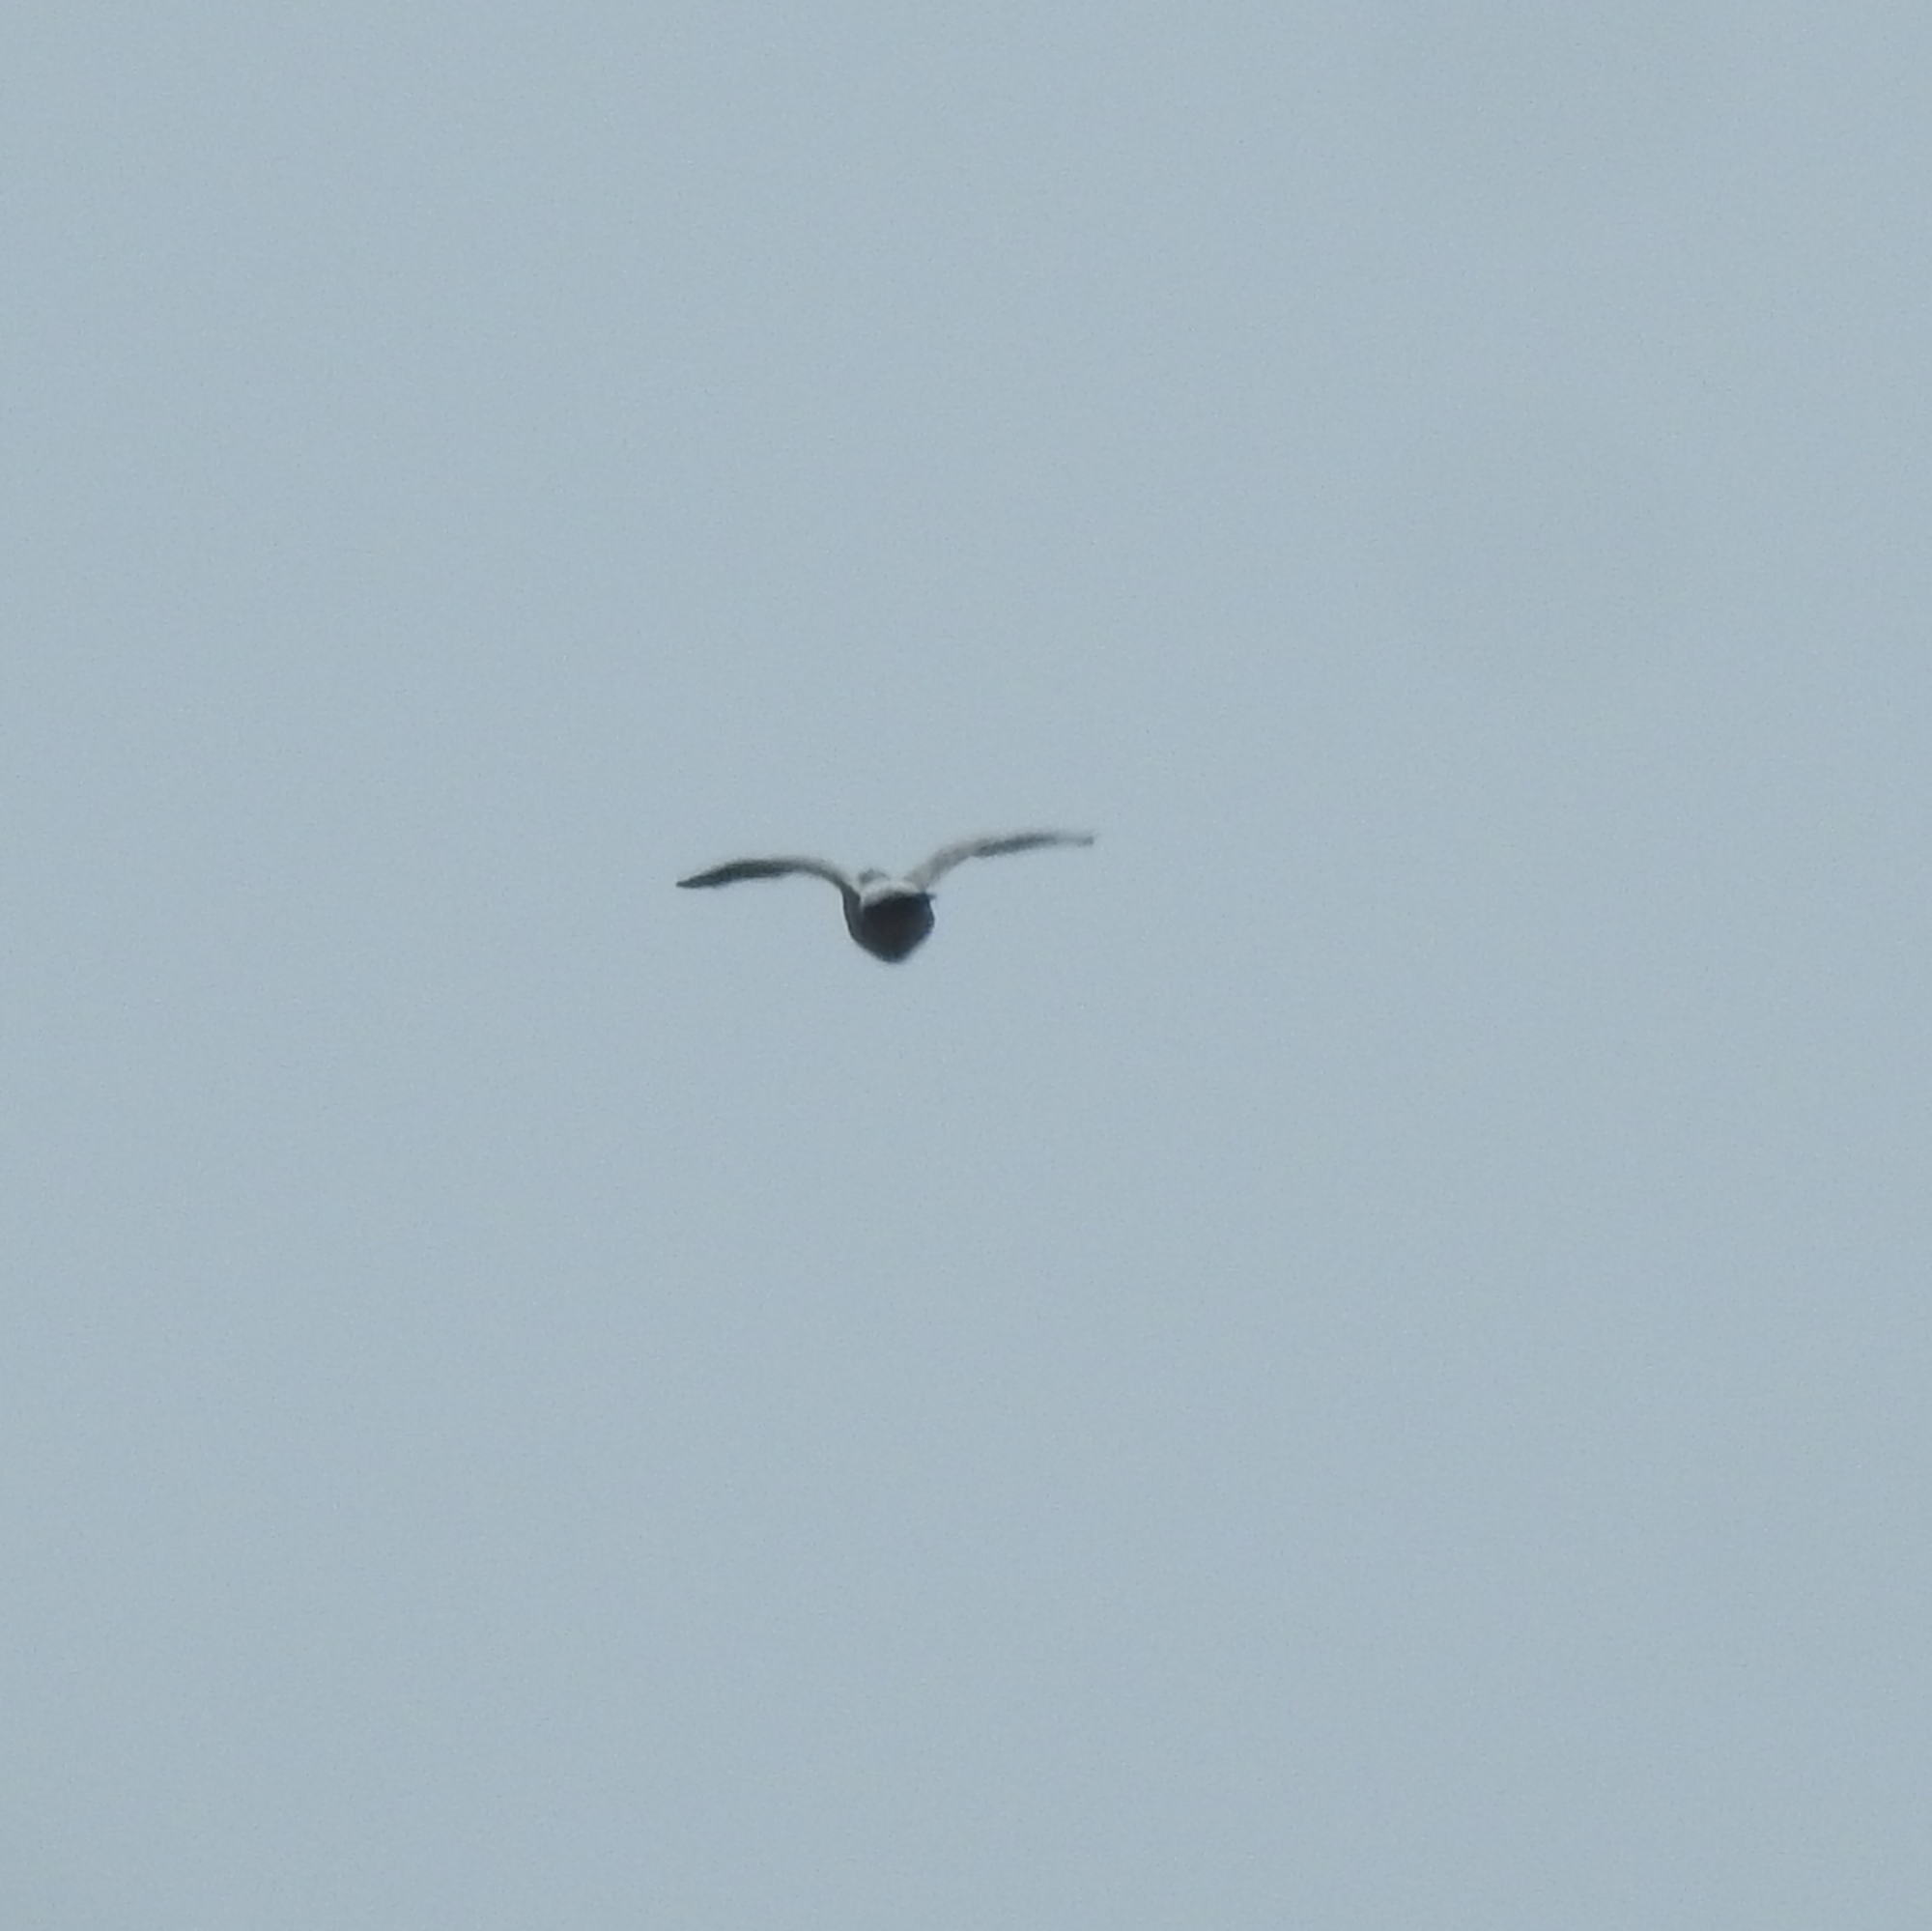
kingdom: Animalia
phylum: Chordata
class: Aves
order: Columbiformes
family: Columbidae
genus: Columba
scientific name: Columba livia
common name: Rock pigeon
